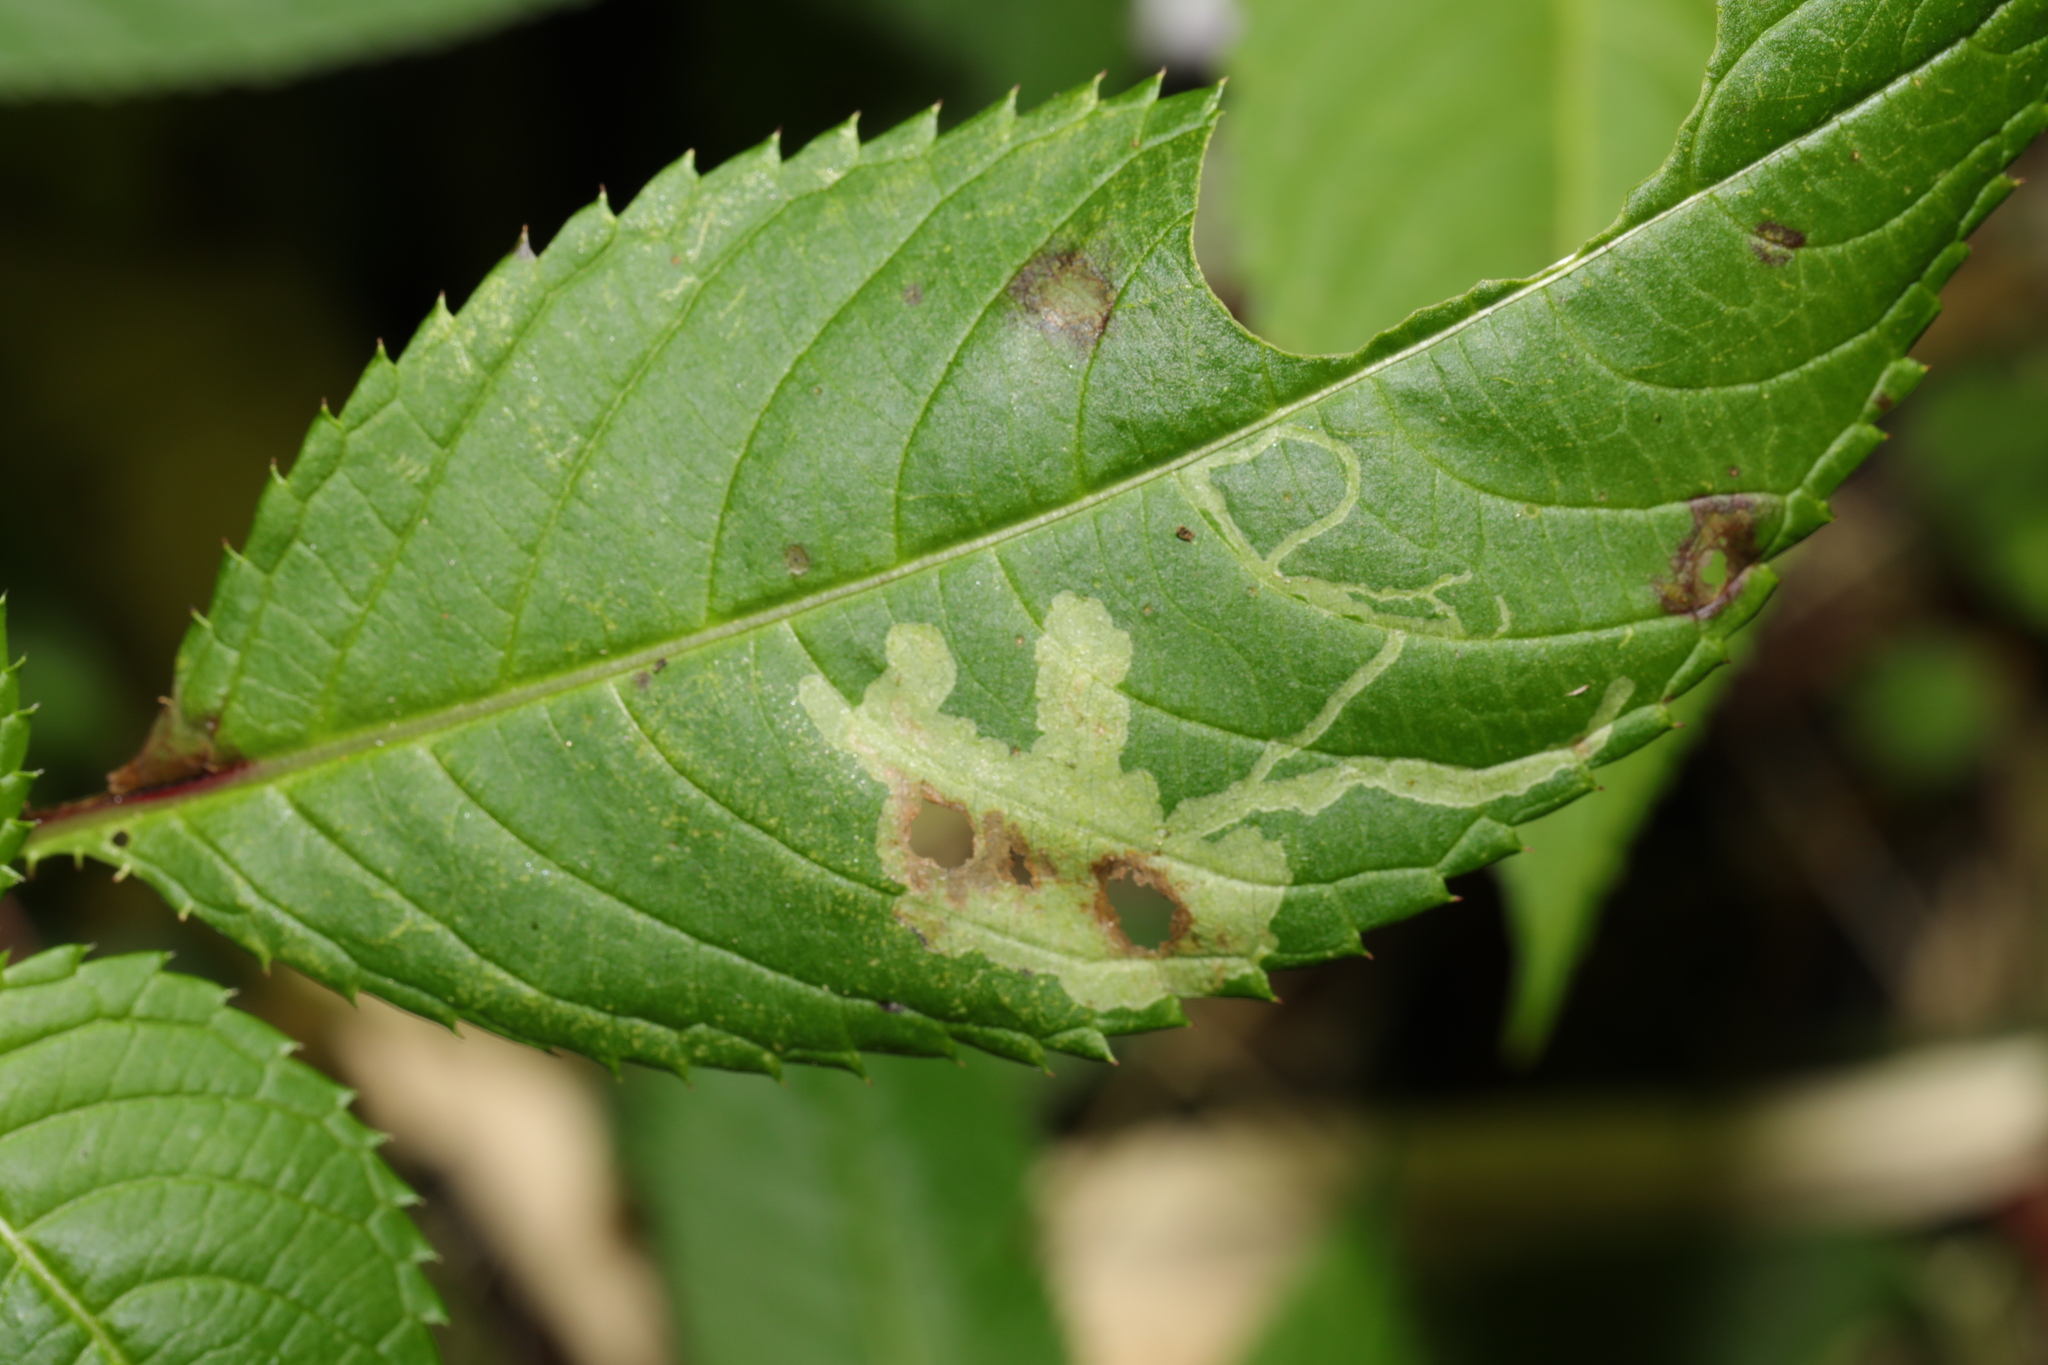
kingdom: Animalia
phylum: Arthropoda
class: Insecta
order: Diptera
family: Agromyzidae
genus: Phytoliriomyza
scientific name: Phytoliriomyza melampyga
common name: Jewelweed leaf-miner fly
